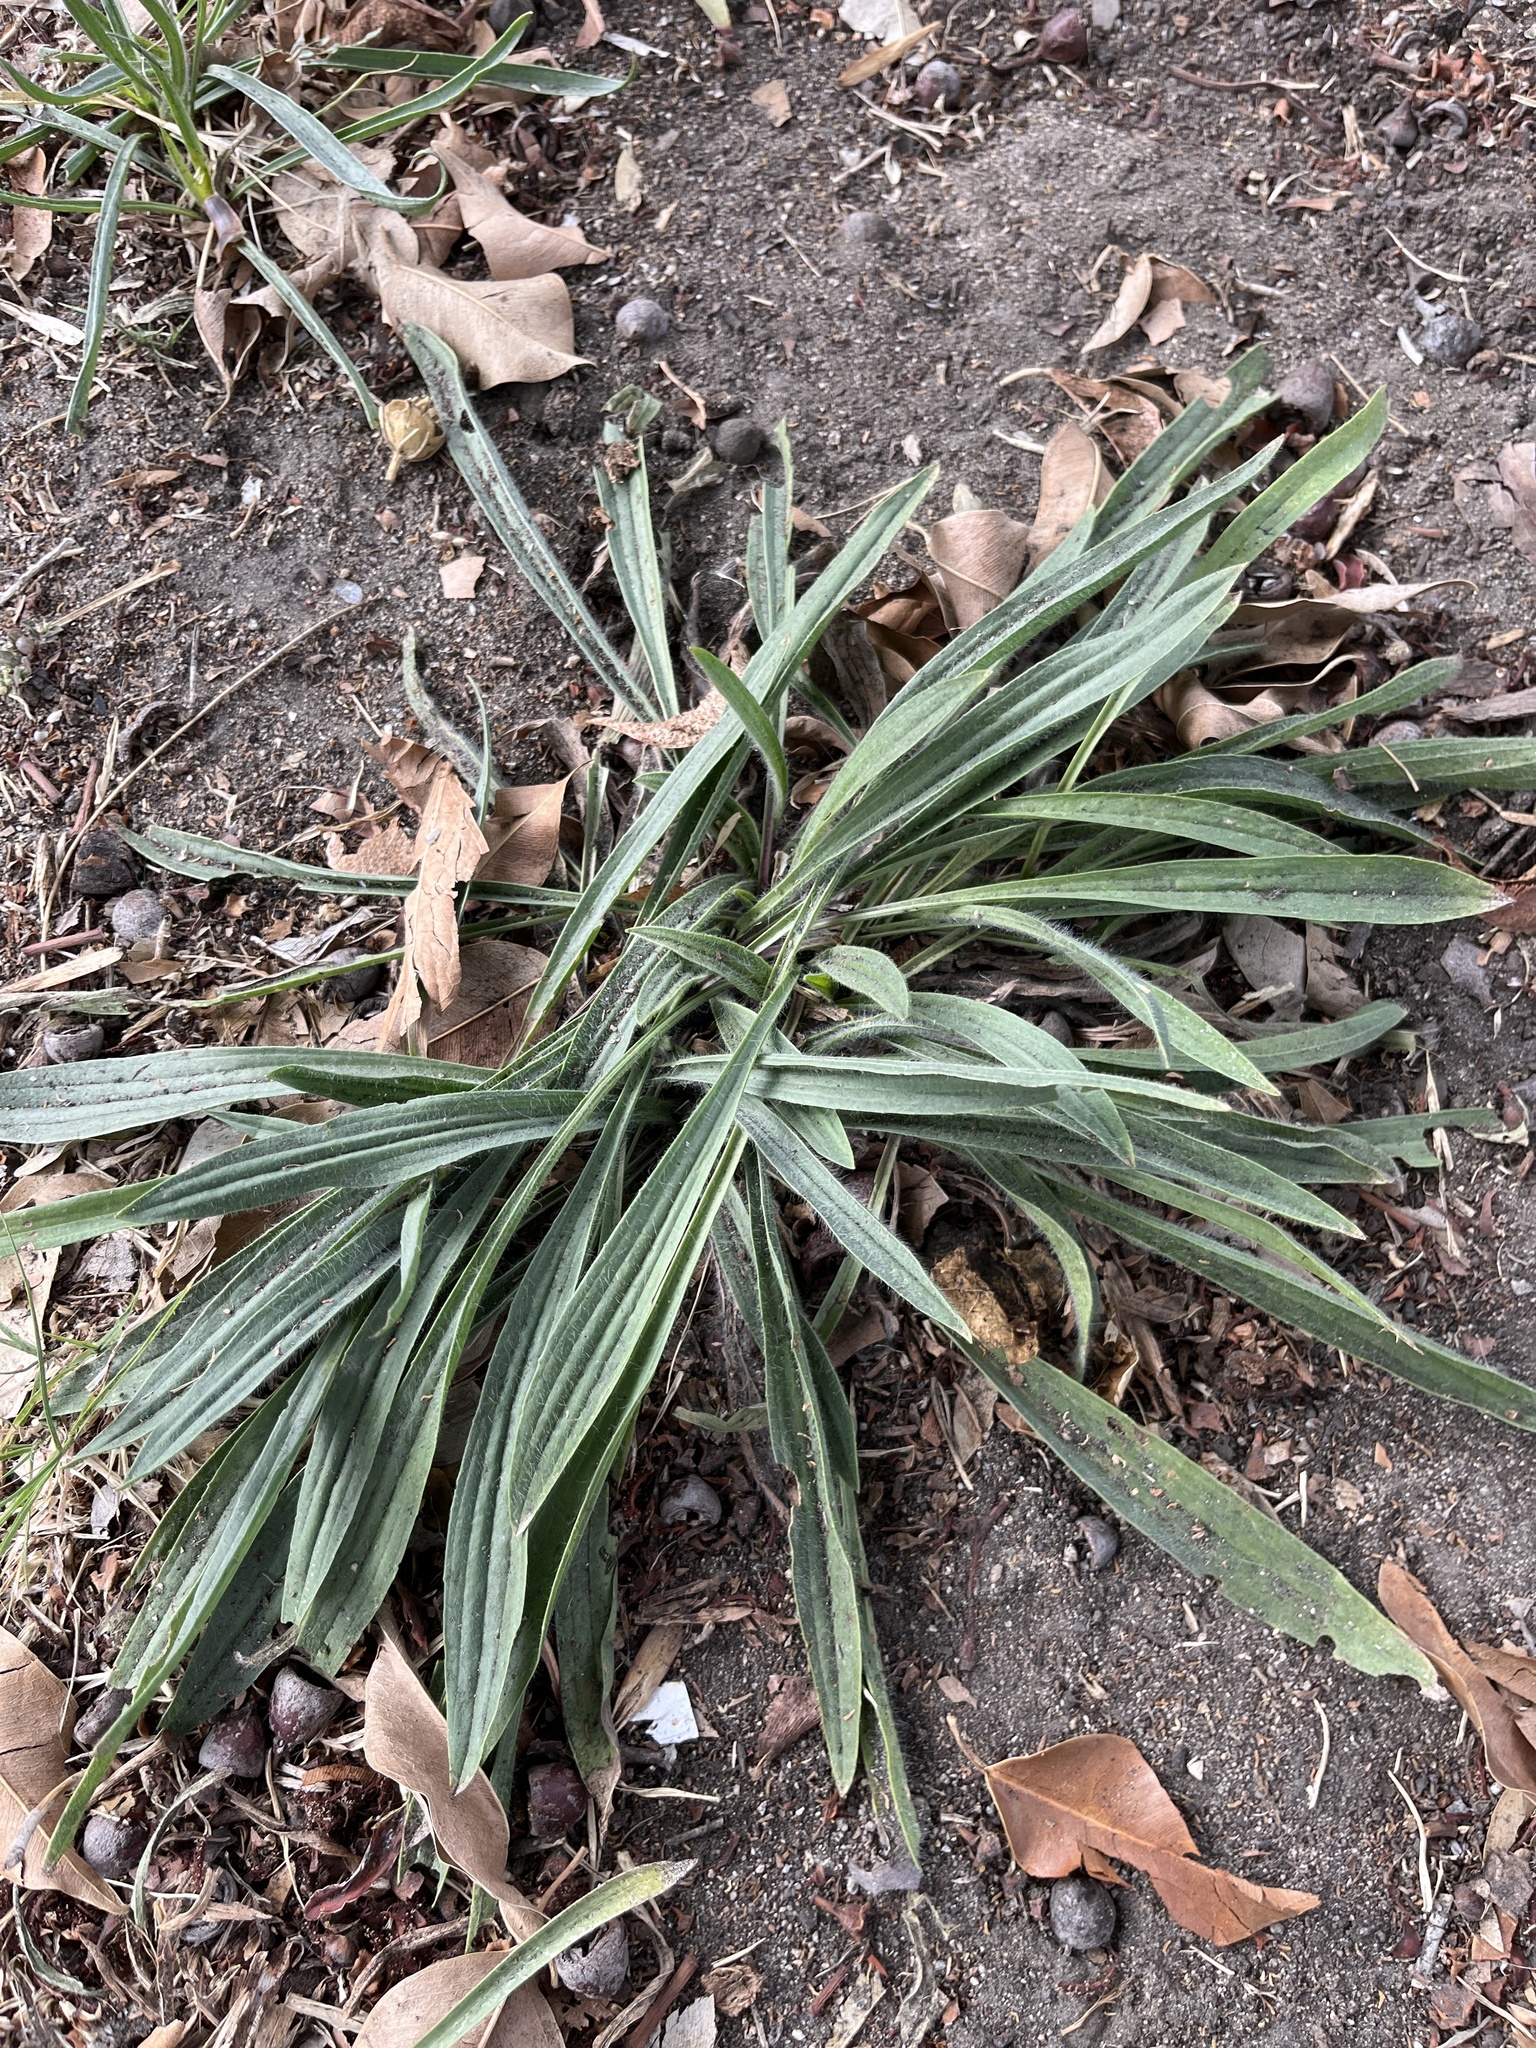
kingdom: Plantae
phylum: Tracheophyta
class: Magnoliopsida
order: Lamiales
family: Plantaginaceae
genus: Plantago
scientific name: Plantago lanceolata
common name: Ribwort plantain
